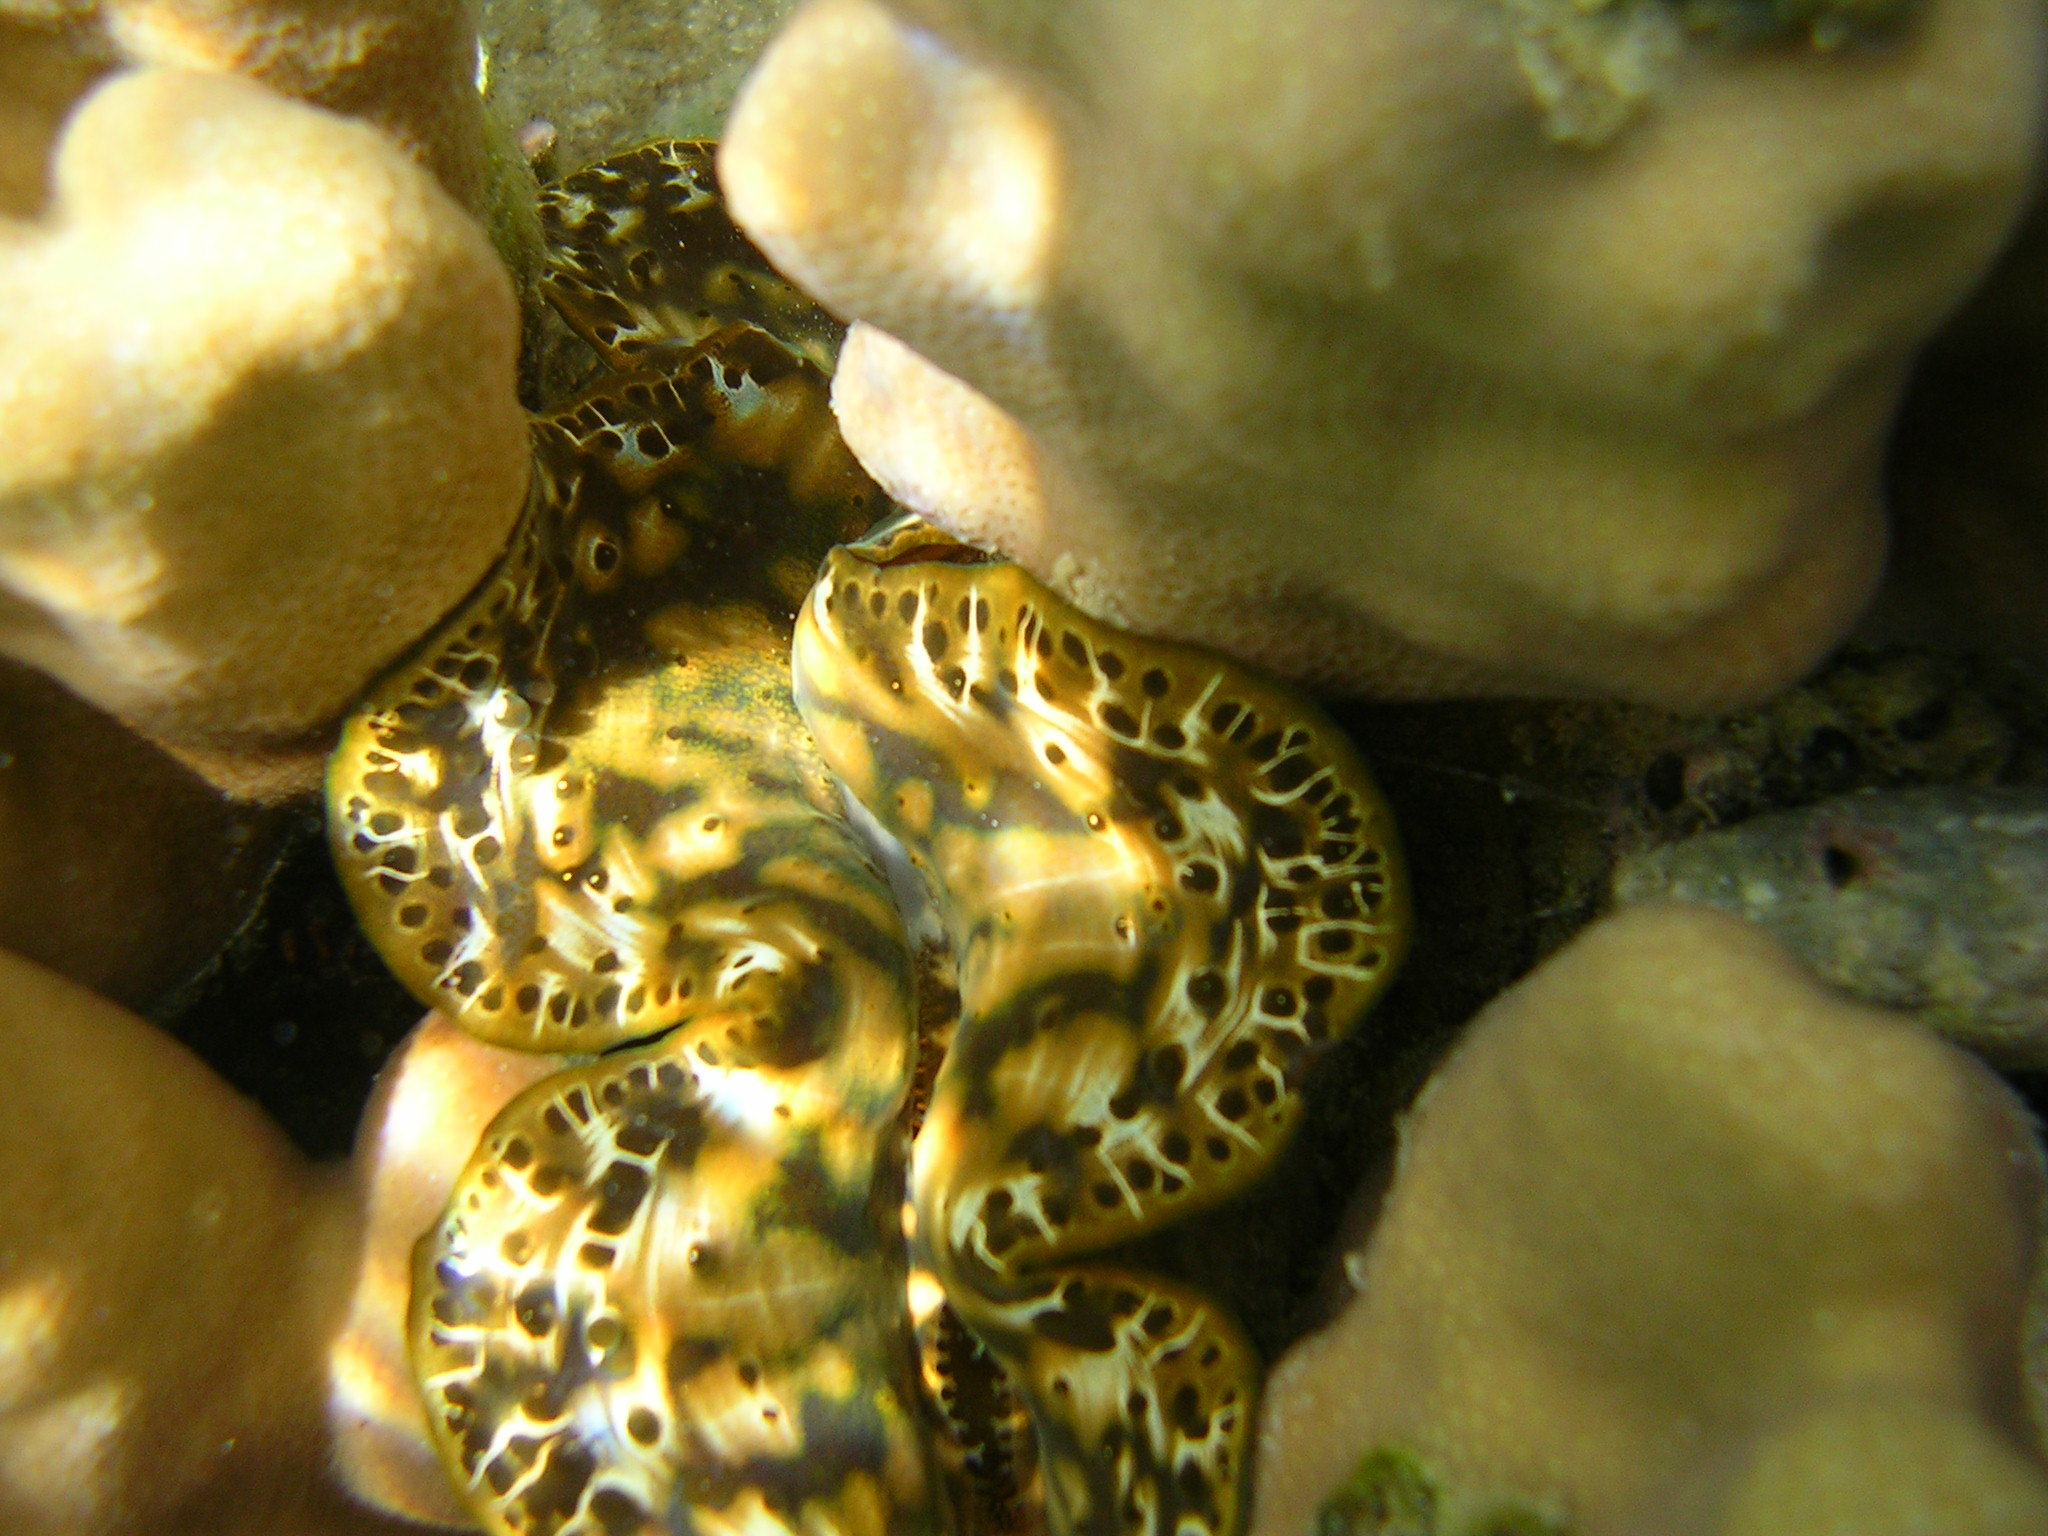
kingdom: Animalia
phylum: Mollusca
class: Bivalvia
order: Cardiida
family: Cardiidae
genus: Tridacna
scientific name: Tridacna maxima
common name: Small giant clam
